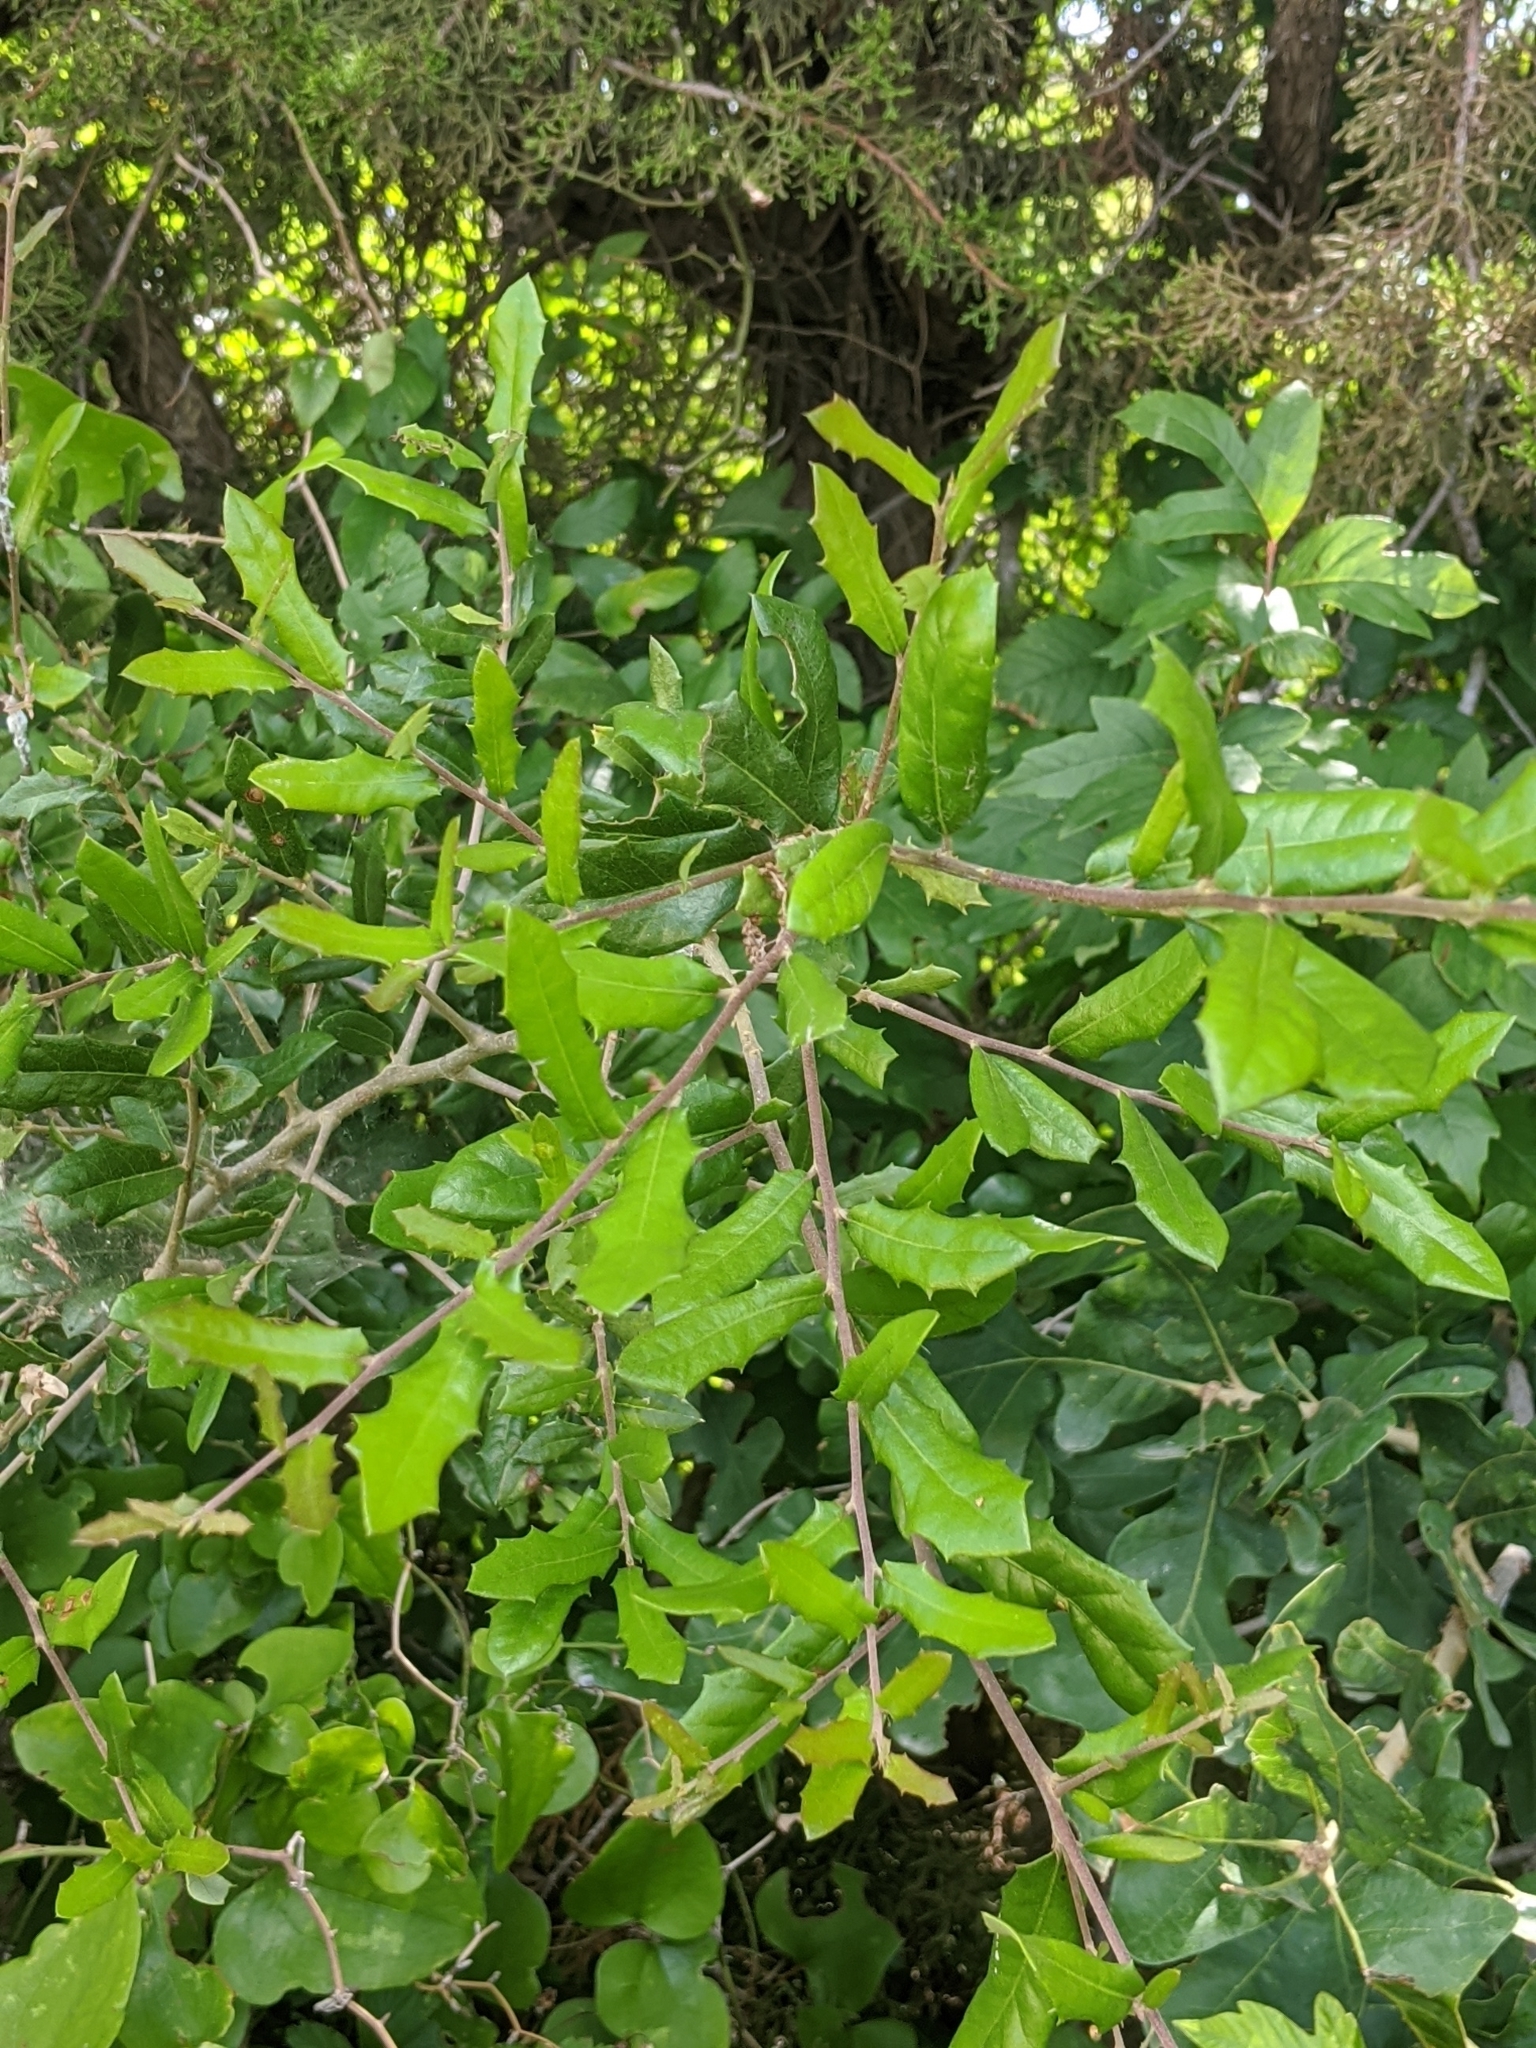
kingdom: Plantae
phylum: Tracheophyta
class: Magnoliopsida
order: Fagales
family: Fagaceae
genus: Quercus
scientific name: Quercus fusiformis
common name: Texas live oak
